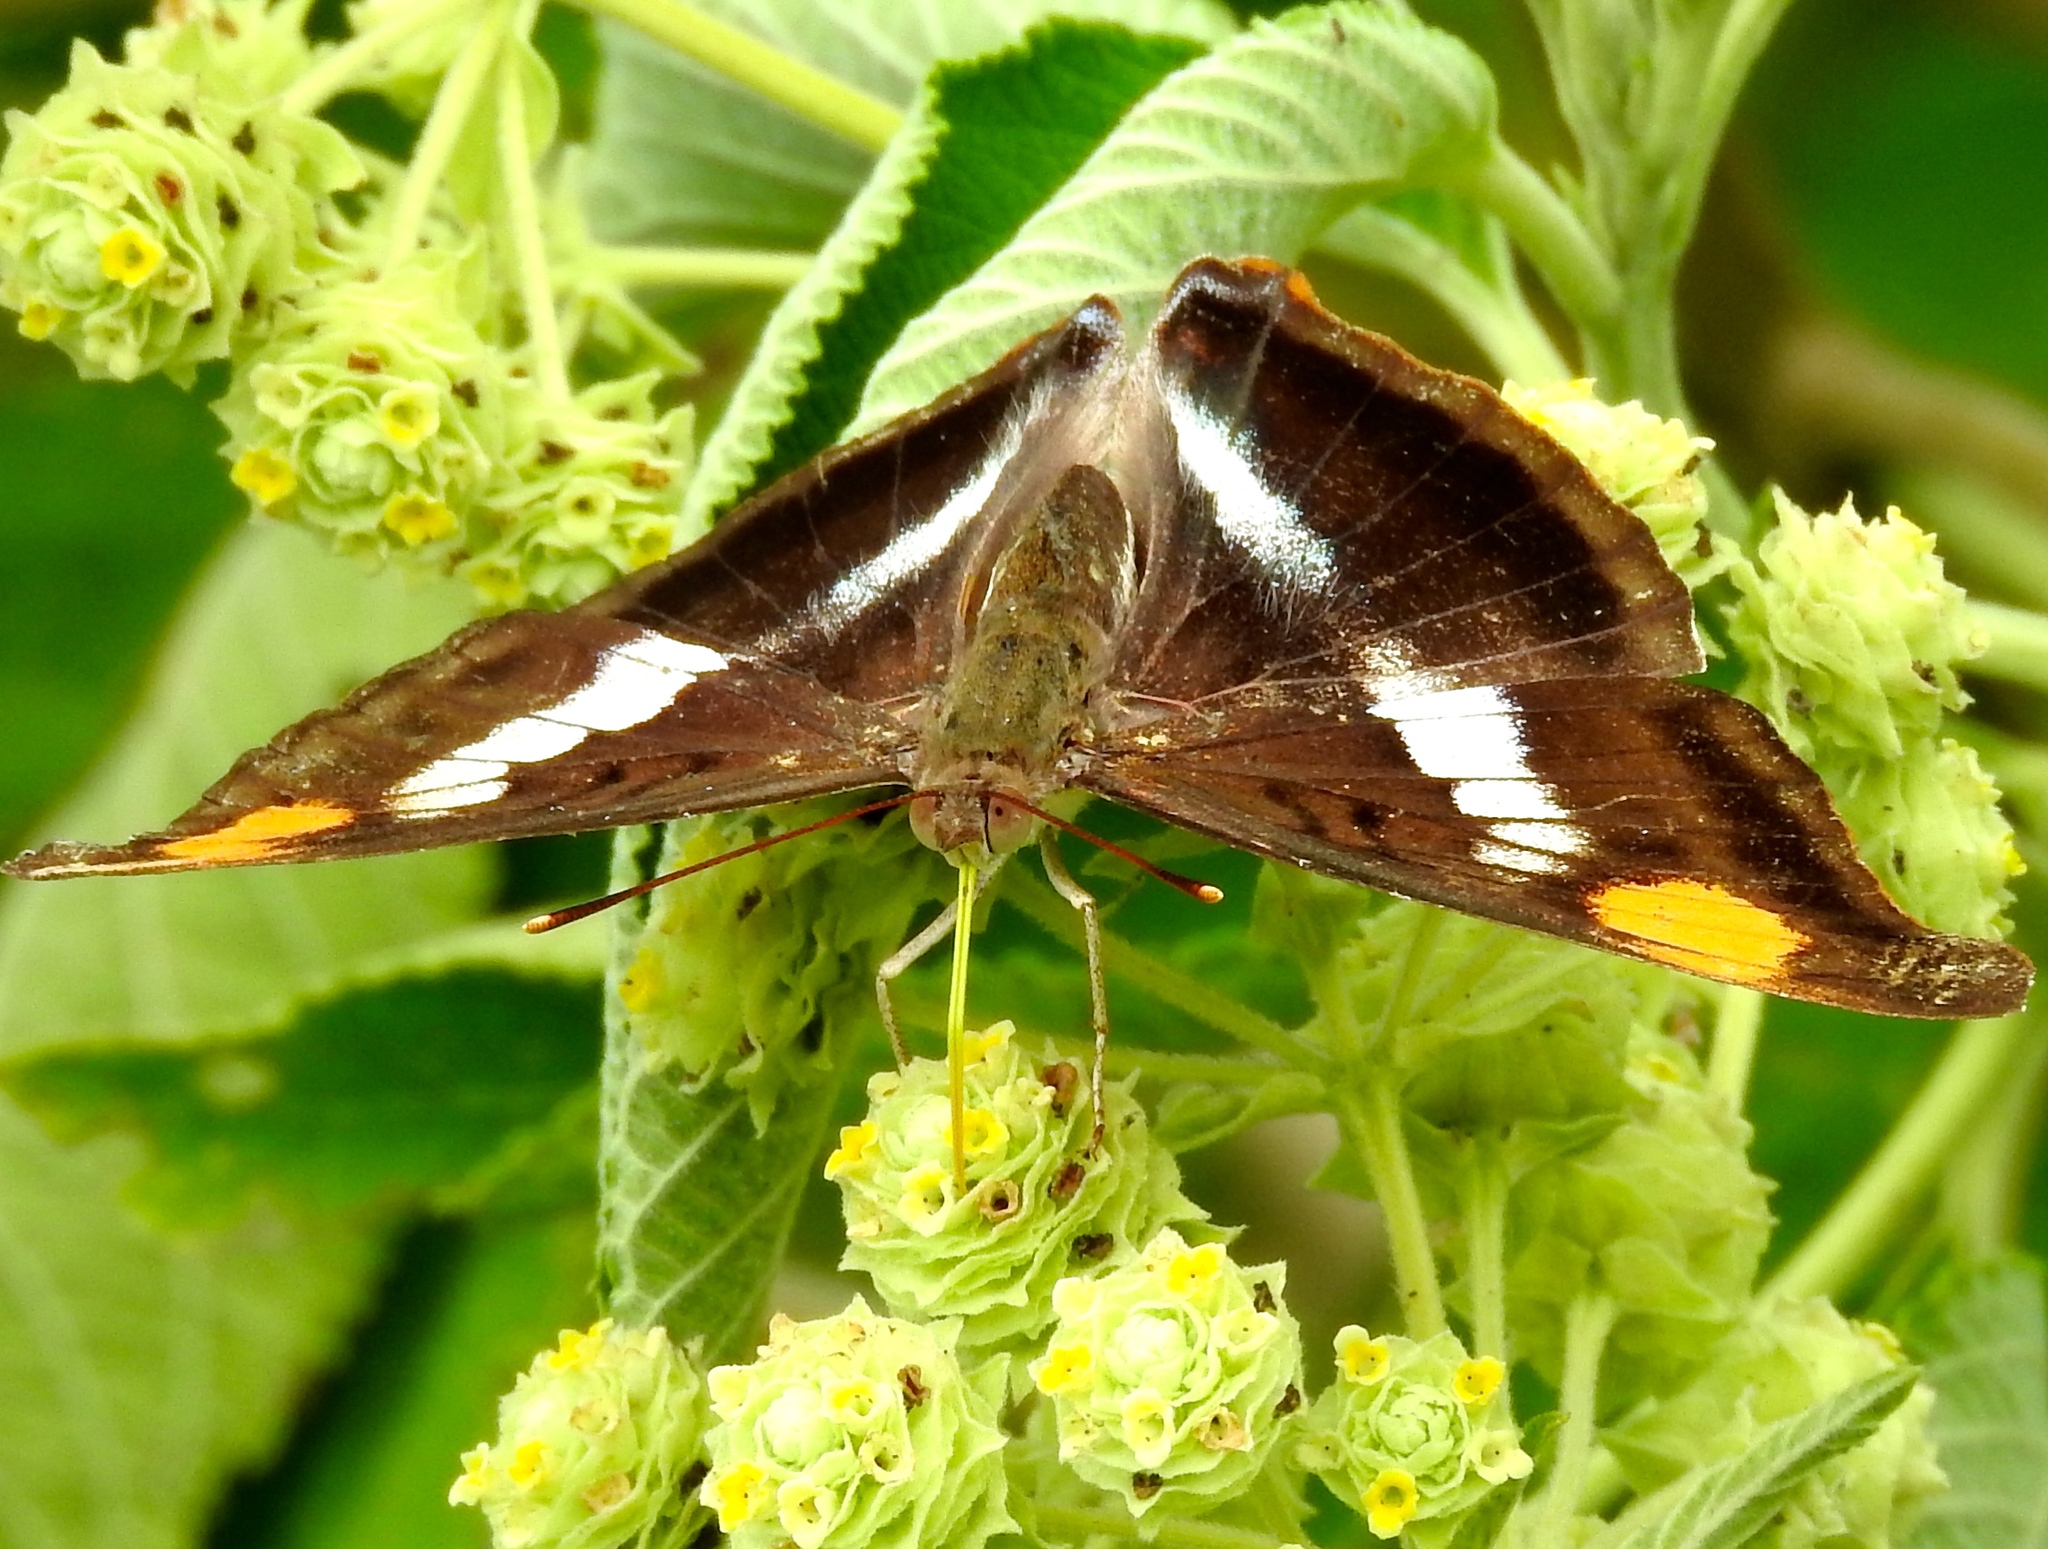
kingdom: Animalia
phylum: Arthropoda
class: Insecta
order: Lepidoptera
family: Nymphalidae
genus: Doxocopa
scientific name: Doxocopa pavon
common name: Pavon emperor
